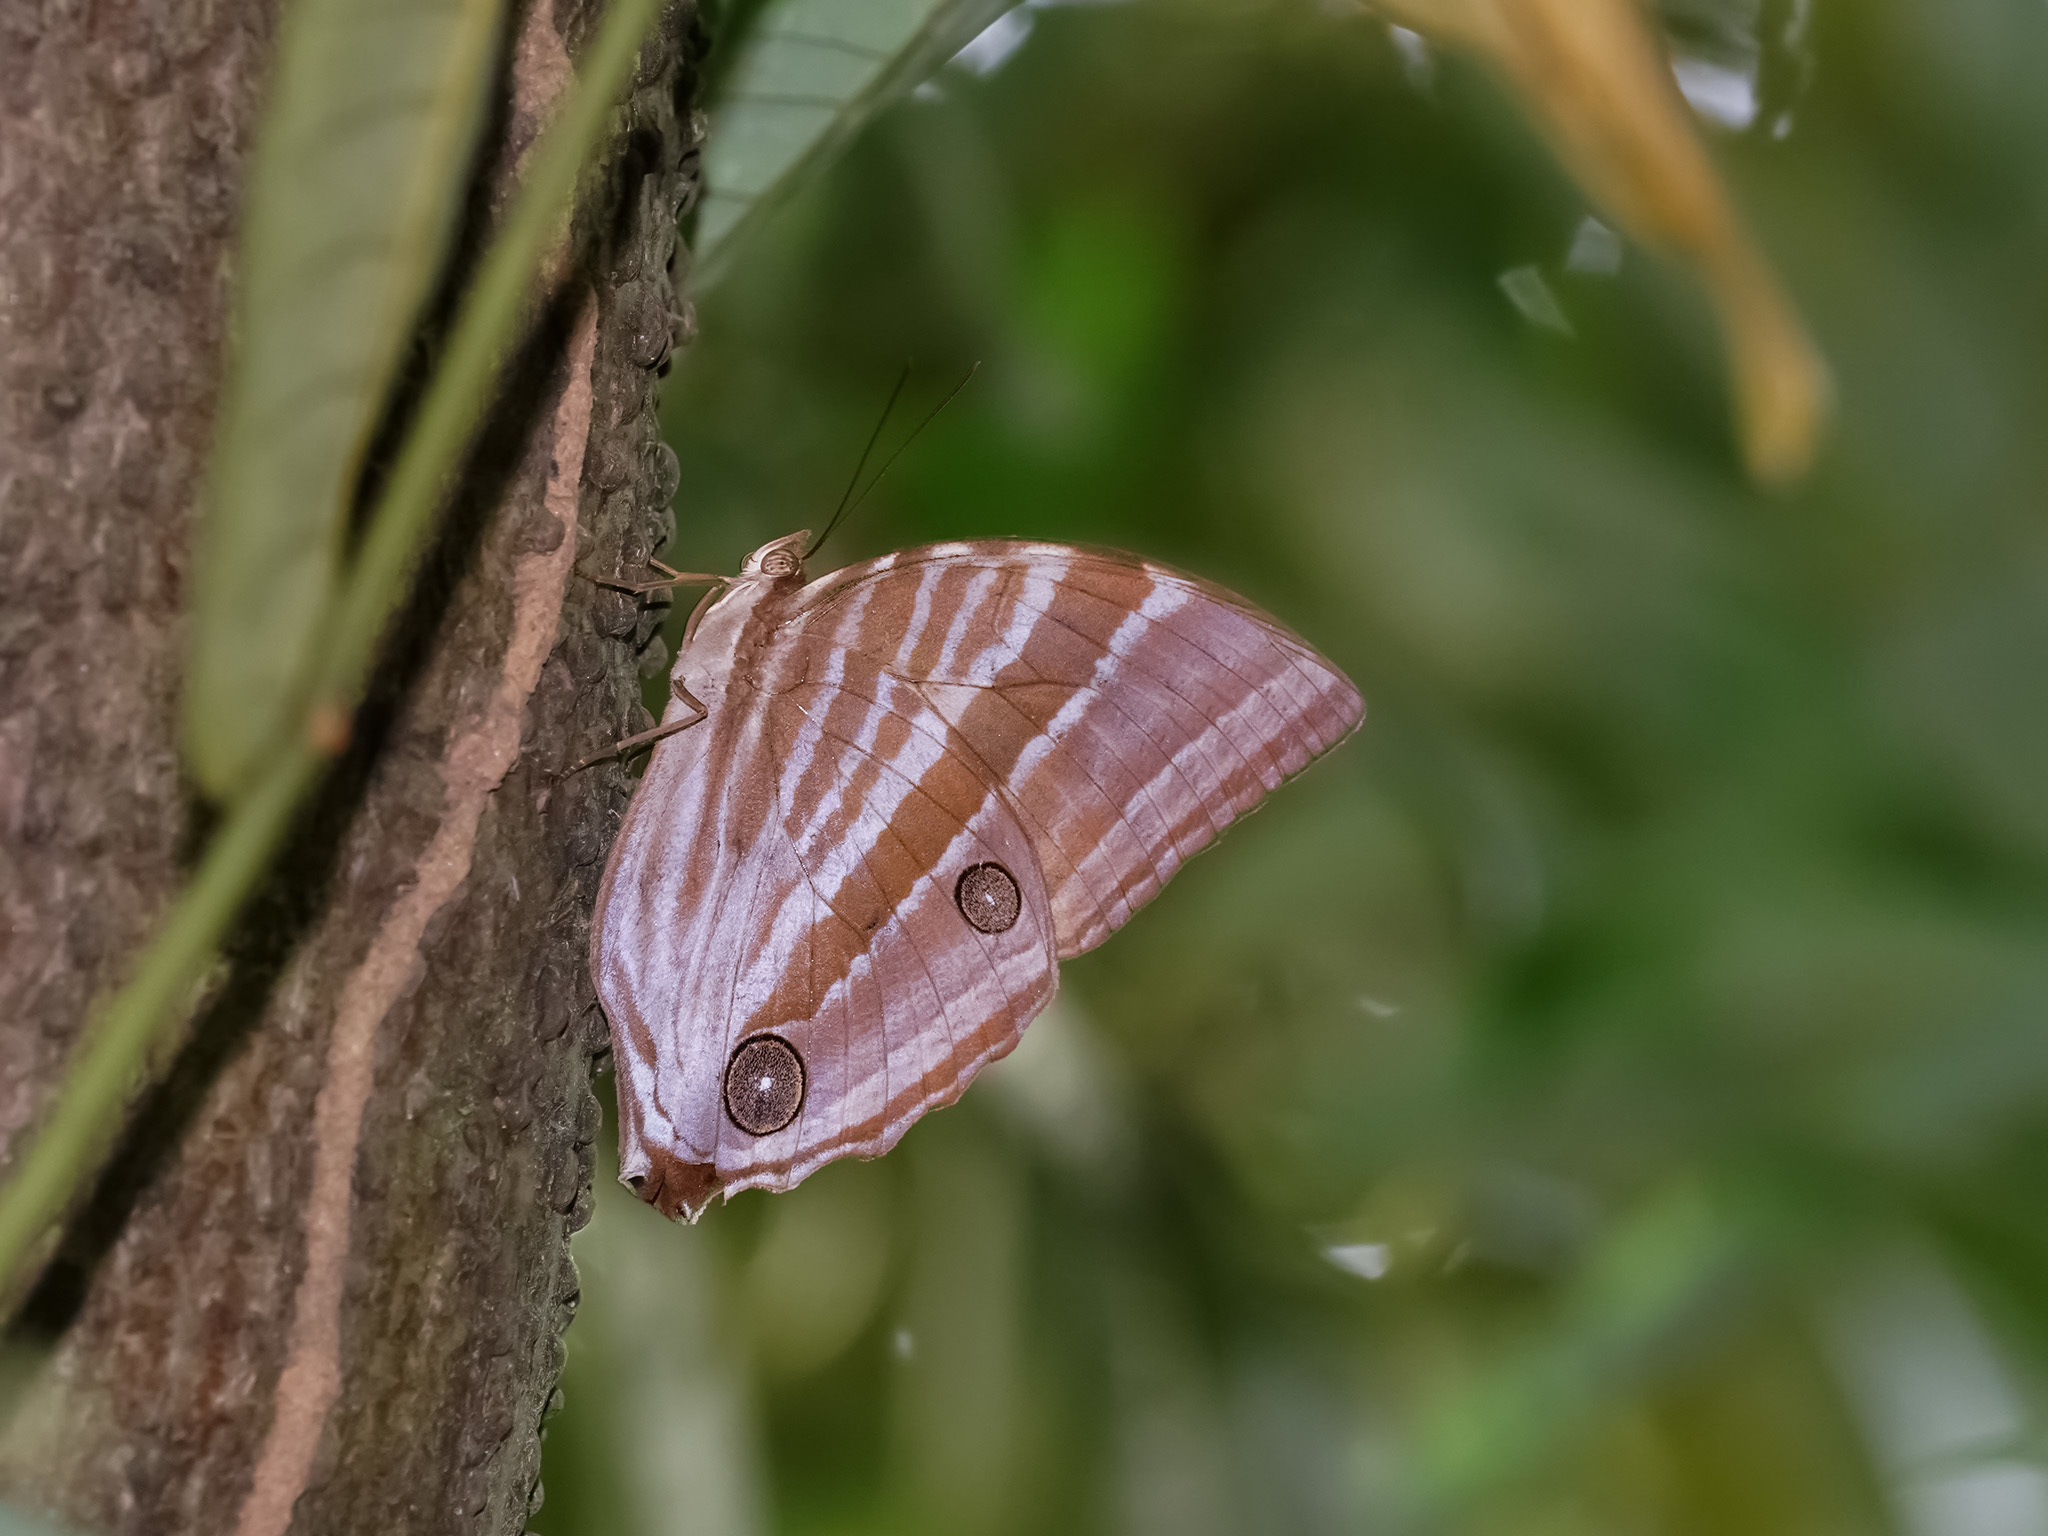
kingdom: Animalia
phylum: Arthropoda
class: Insecta
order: Lepidoptera
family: Nymphalidae
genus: Amathusia
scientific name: Amathusia phidippus
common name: Palm king
